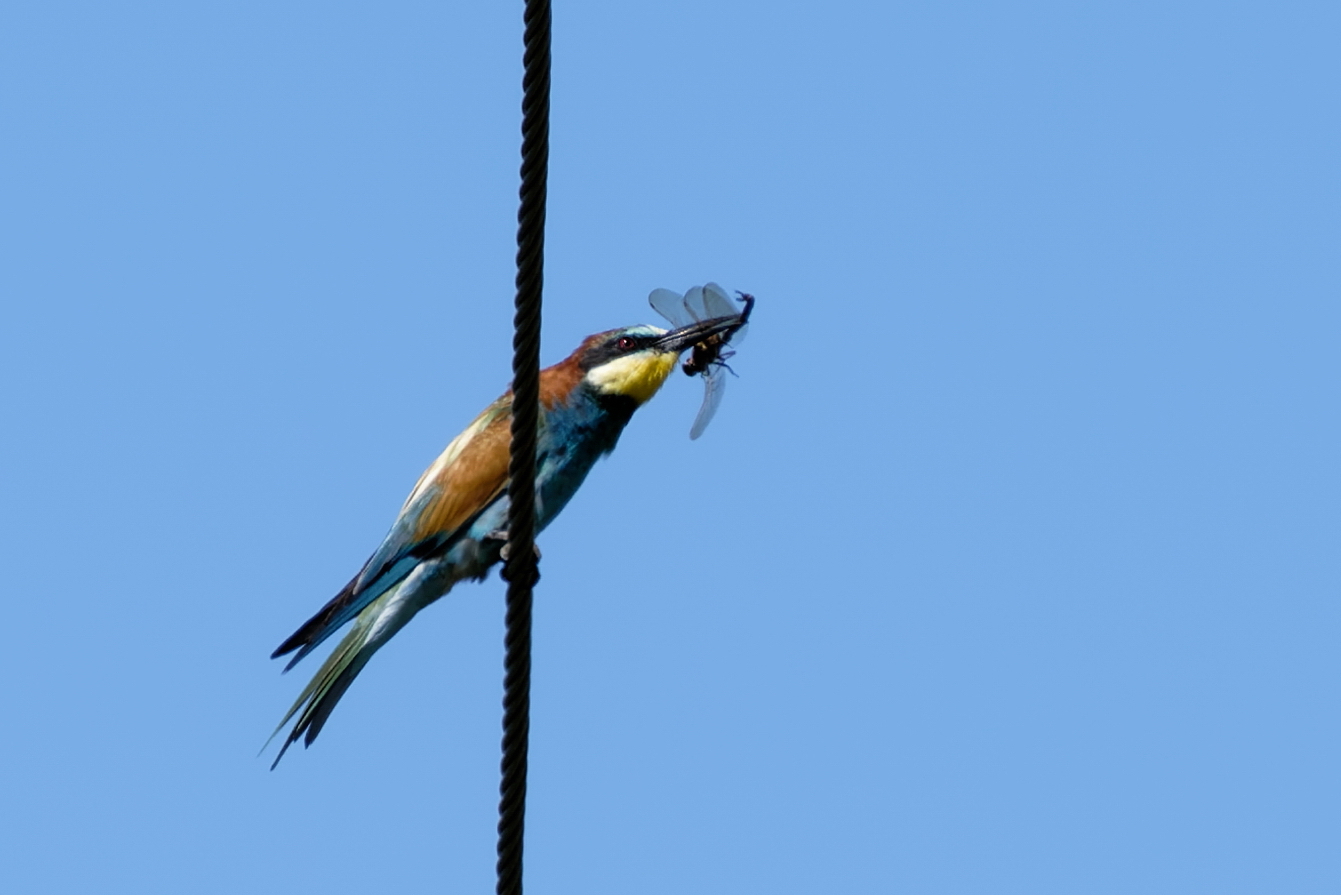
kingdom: Animalia
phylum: Chordata
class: Aves
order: Coraciiformes
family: Meropidae
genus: Merops
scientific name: Merops apiaster
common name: European bee-eater
